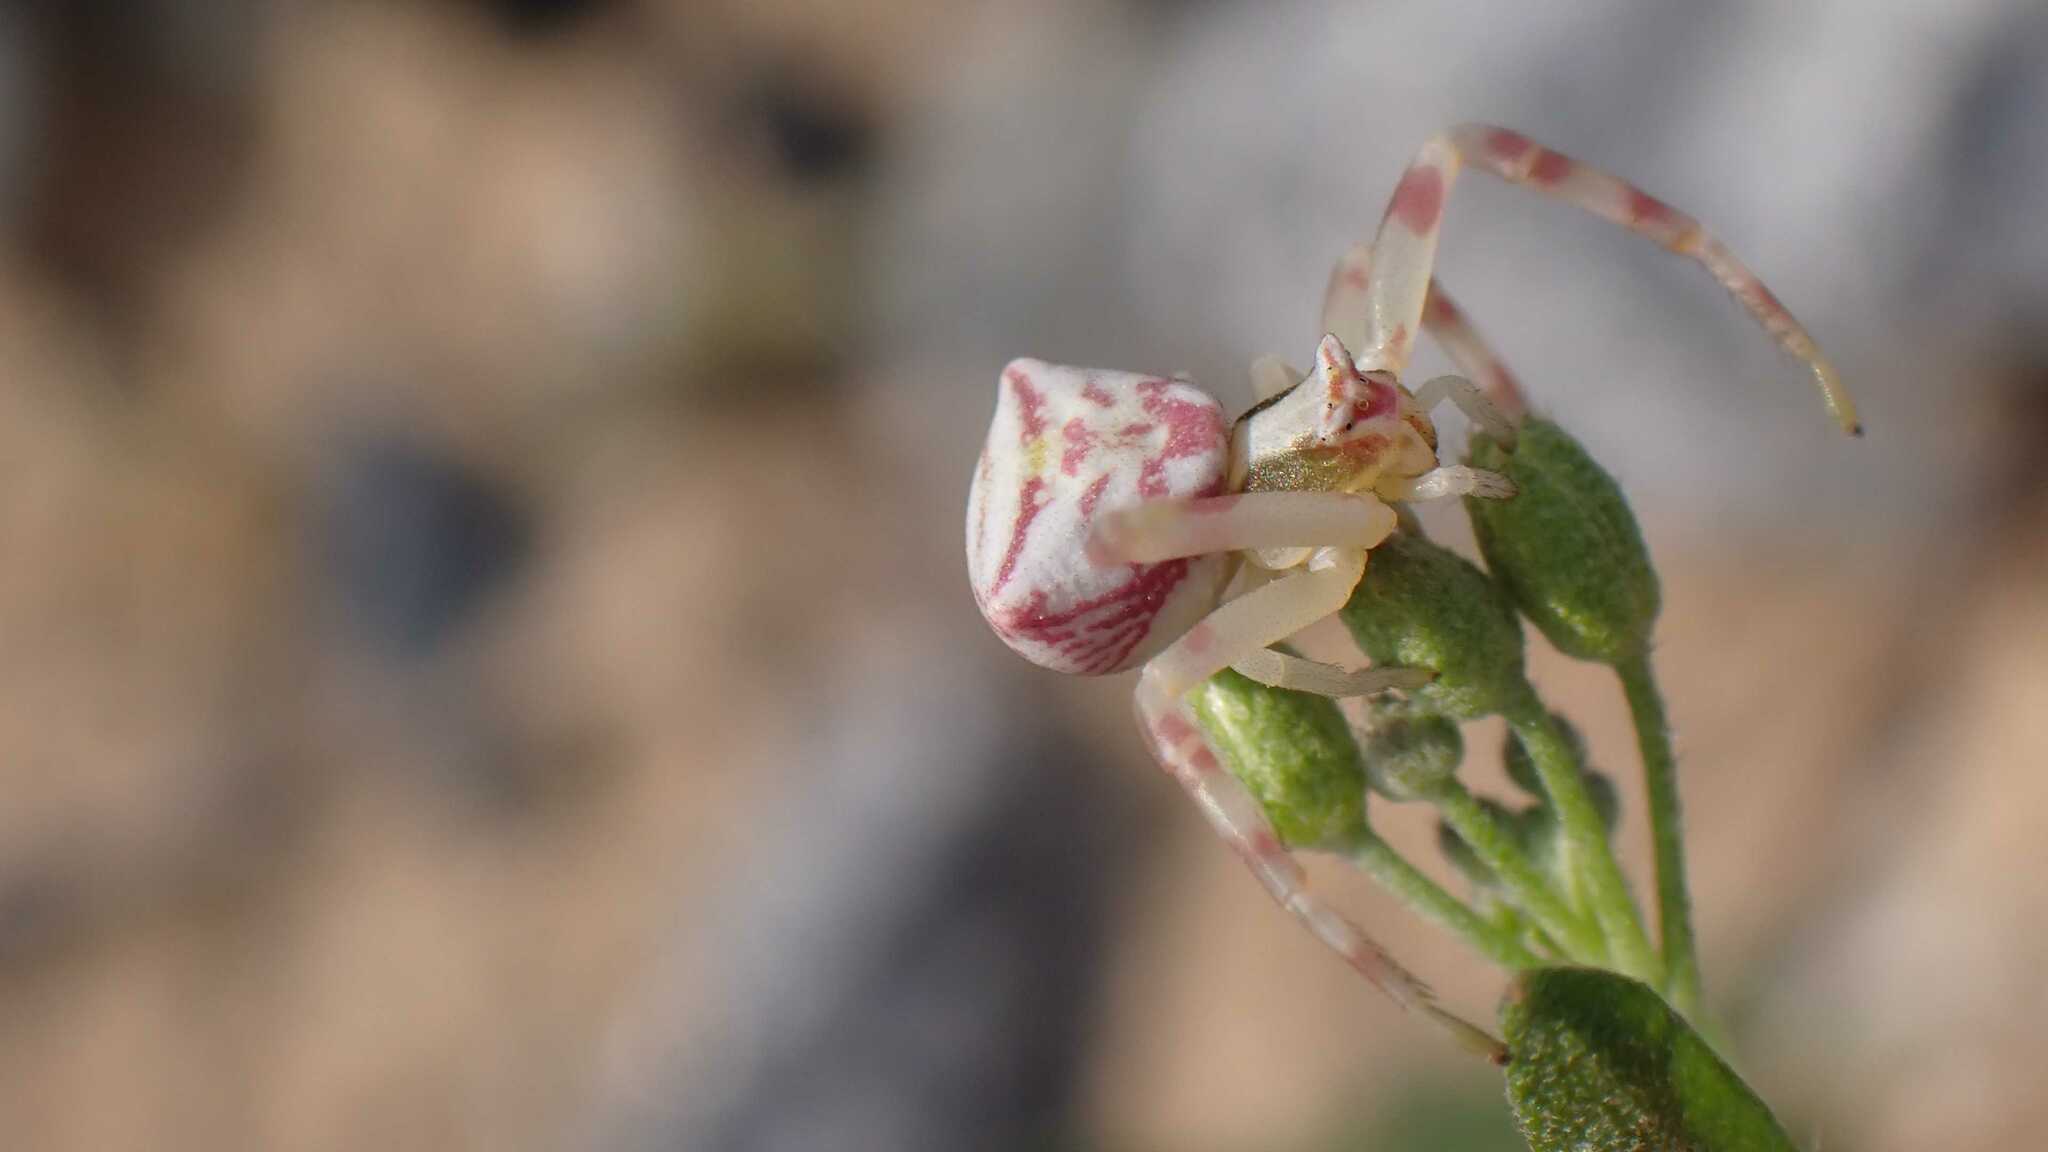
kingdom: Animalia
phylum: Arthropoda
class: Arachnida
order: Araneae
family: Thomisidae
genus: Thomisus
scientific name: Thomisus onustus
